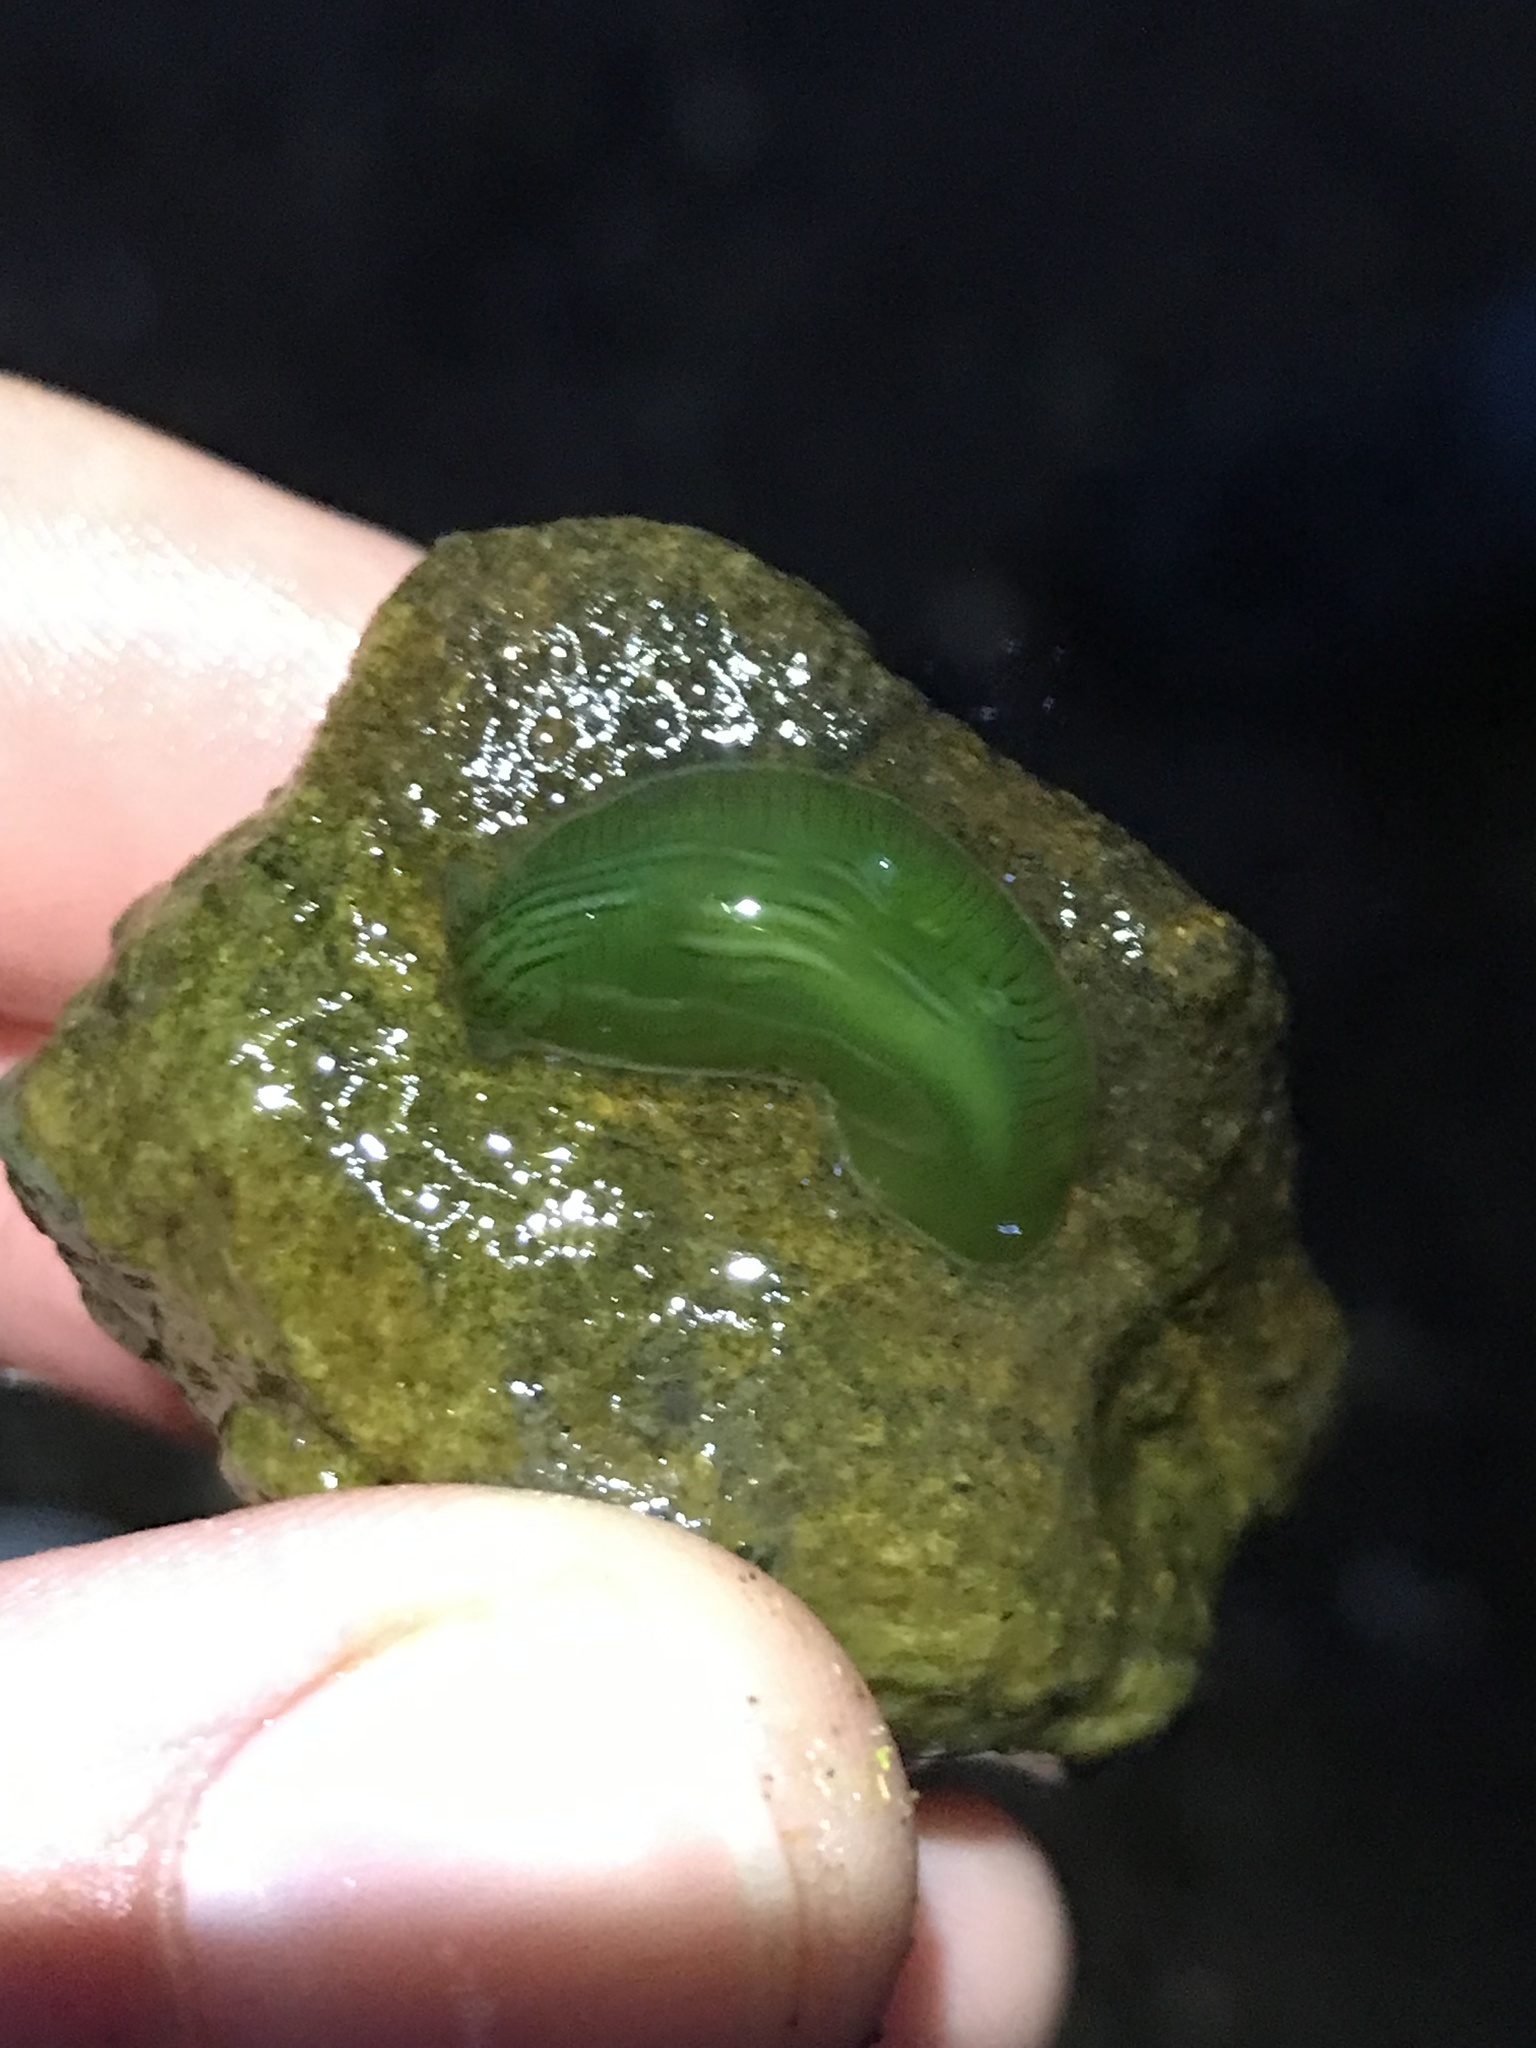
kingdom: Animalia
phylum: Mollusca
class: Gastropoda
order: Aplysiida
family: Aplysiidae
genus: Phyllaplysia
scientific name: Phyllaplysia taylori
